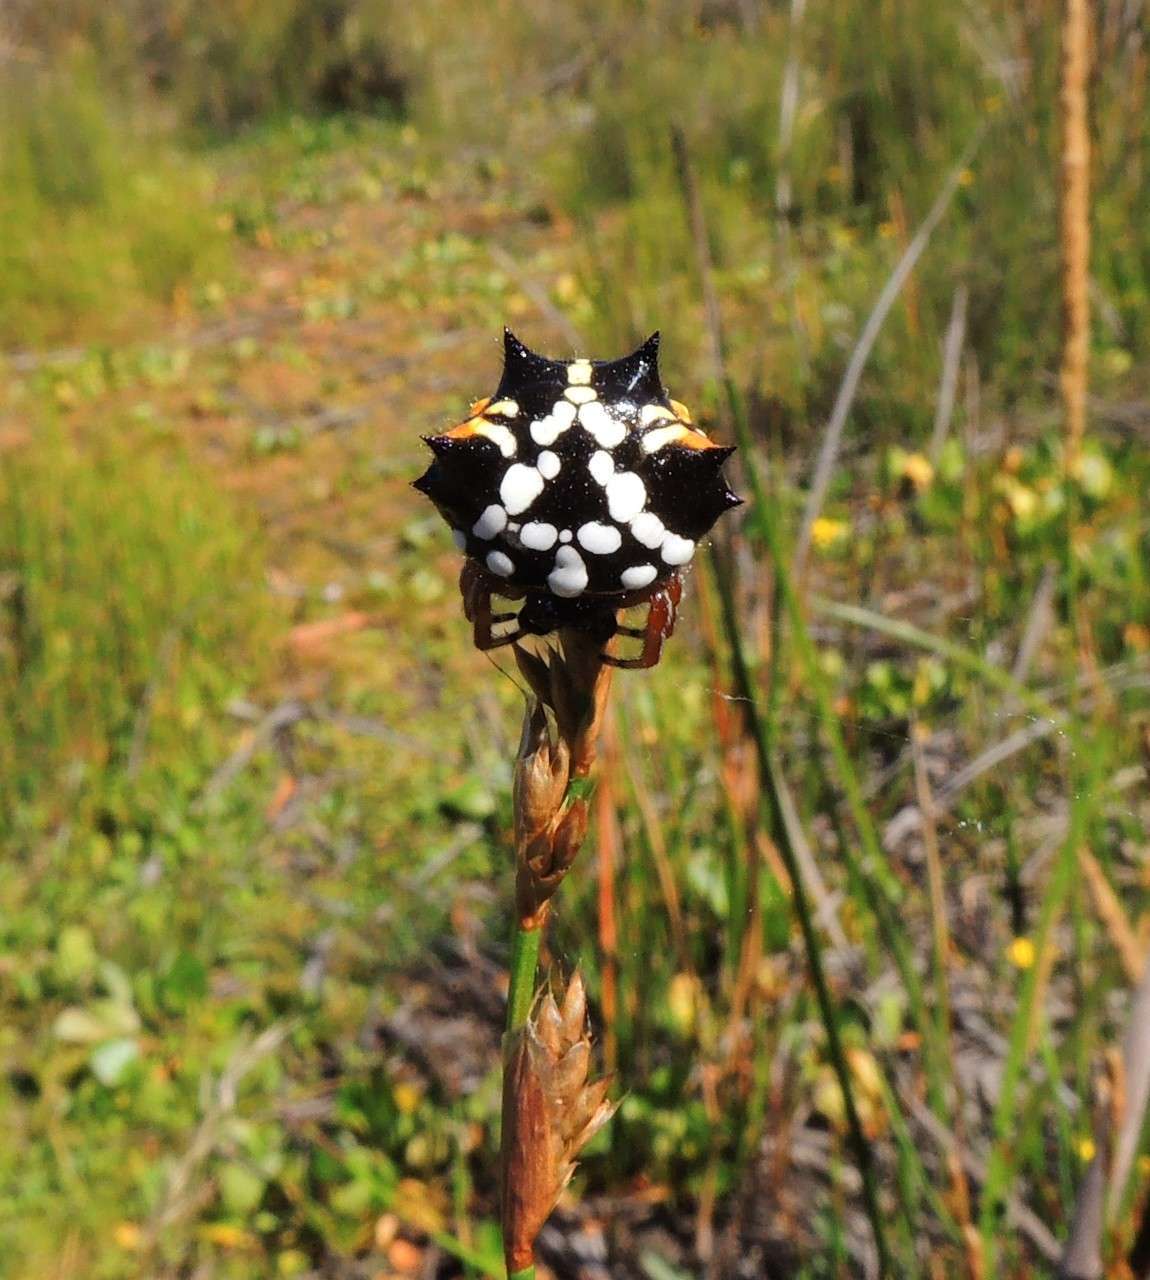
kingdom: Animalia
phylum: Arthropoda
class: Arachnida
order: Araneae
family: Araneidae
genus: Austracantha
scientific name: Austracantha minax
